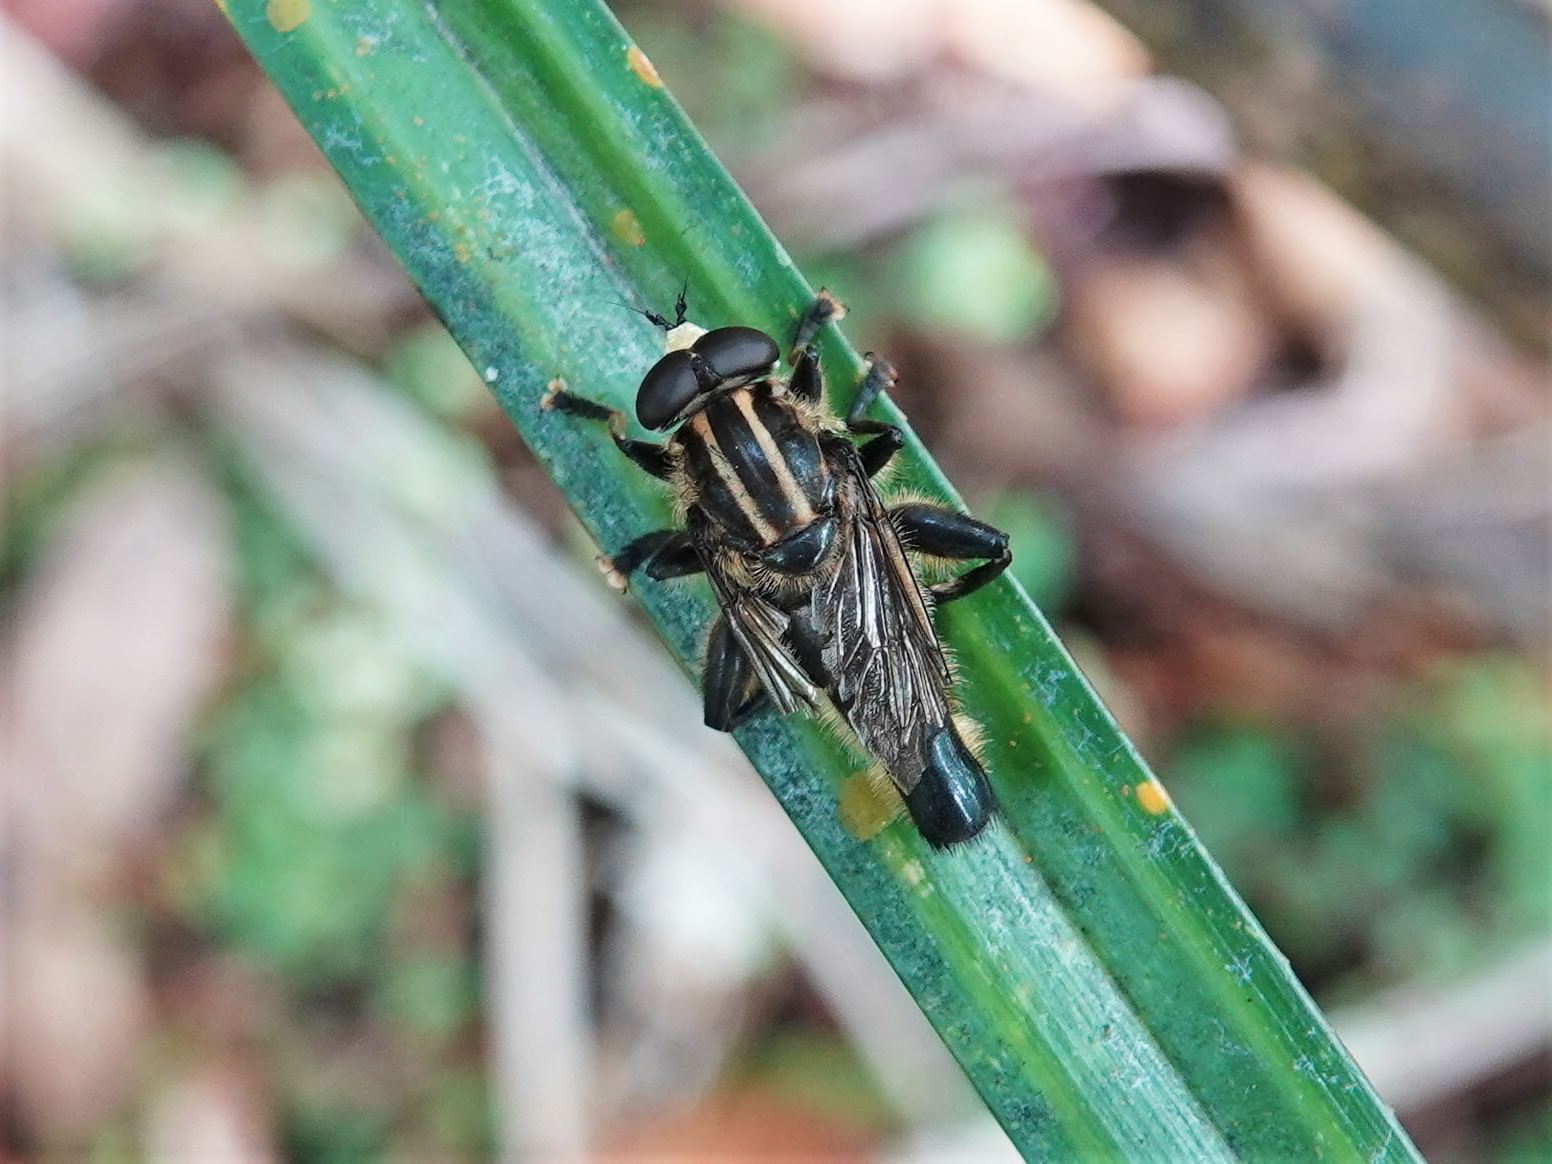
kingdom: Animalia
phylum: Arthropoda
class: Insecta
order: Diptera
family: Syrphidae
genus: Orthoprosopa
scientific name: Orthoprosopa bilineata
